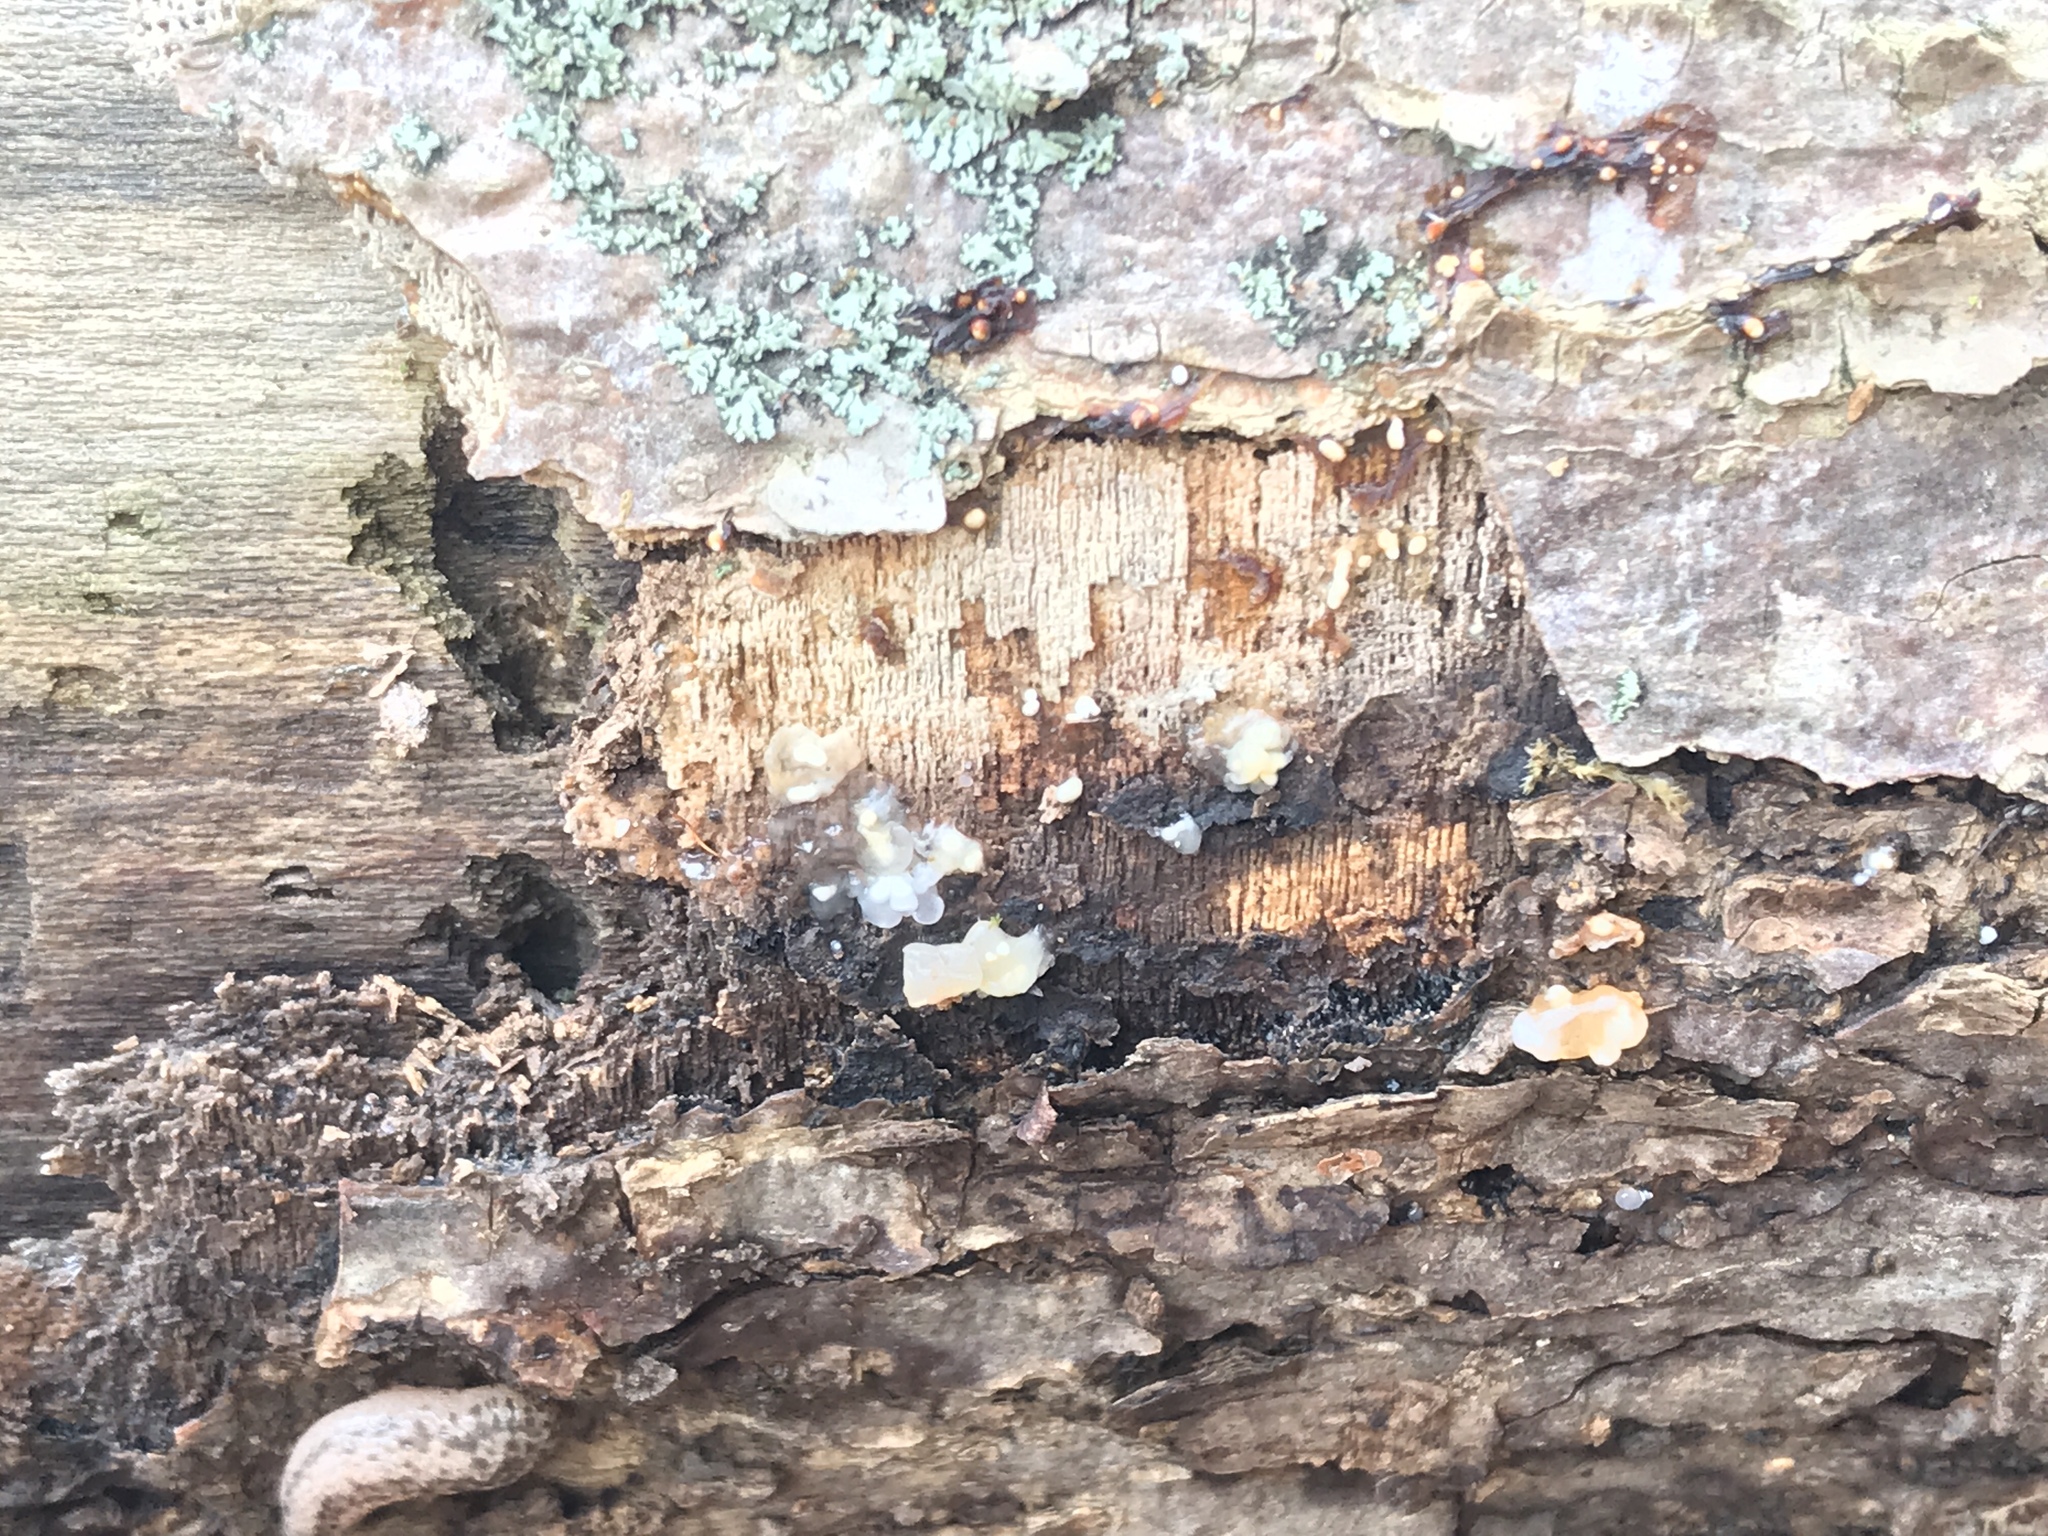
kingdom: Fungi
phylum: Basidiomycota
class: Agaricomycetes
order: Auriculariales
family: Hyaloriaceae
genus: Myxarium
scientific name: Myxarium nucleatum
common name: Crystal brain fungus
